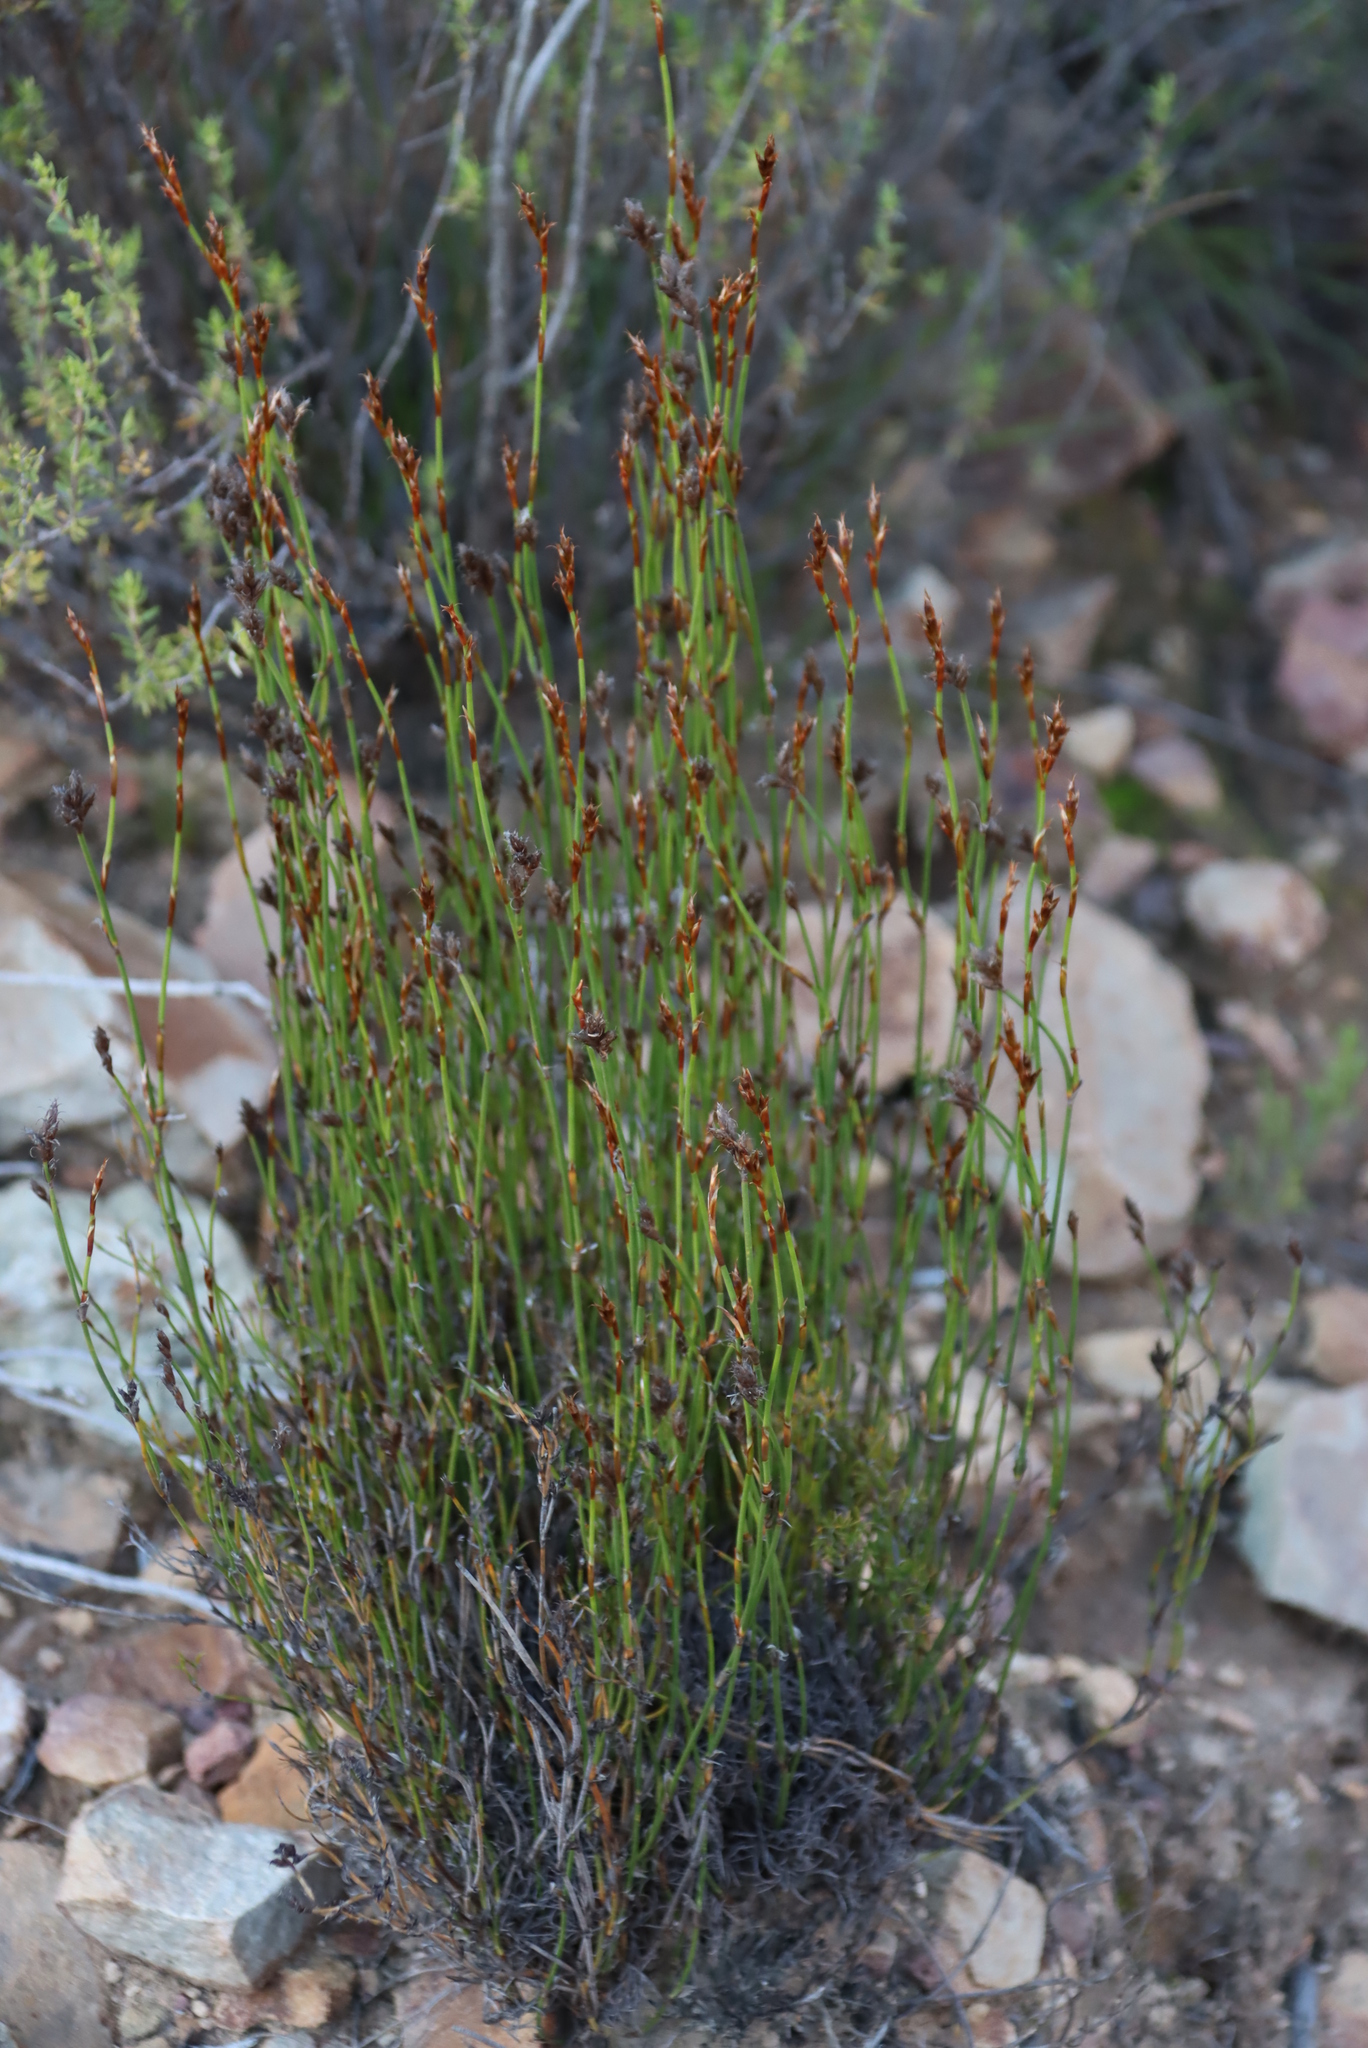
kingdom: Plantae
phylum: Tracheophyta
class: Liliopsida
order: Poales
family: Restionaceae
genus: Restio
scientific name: Restio capensis
